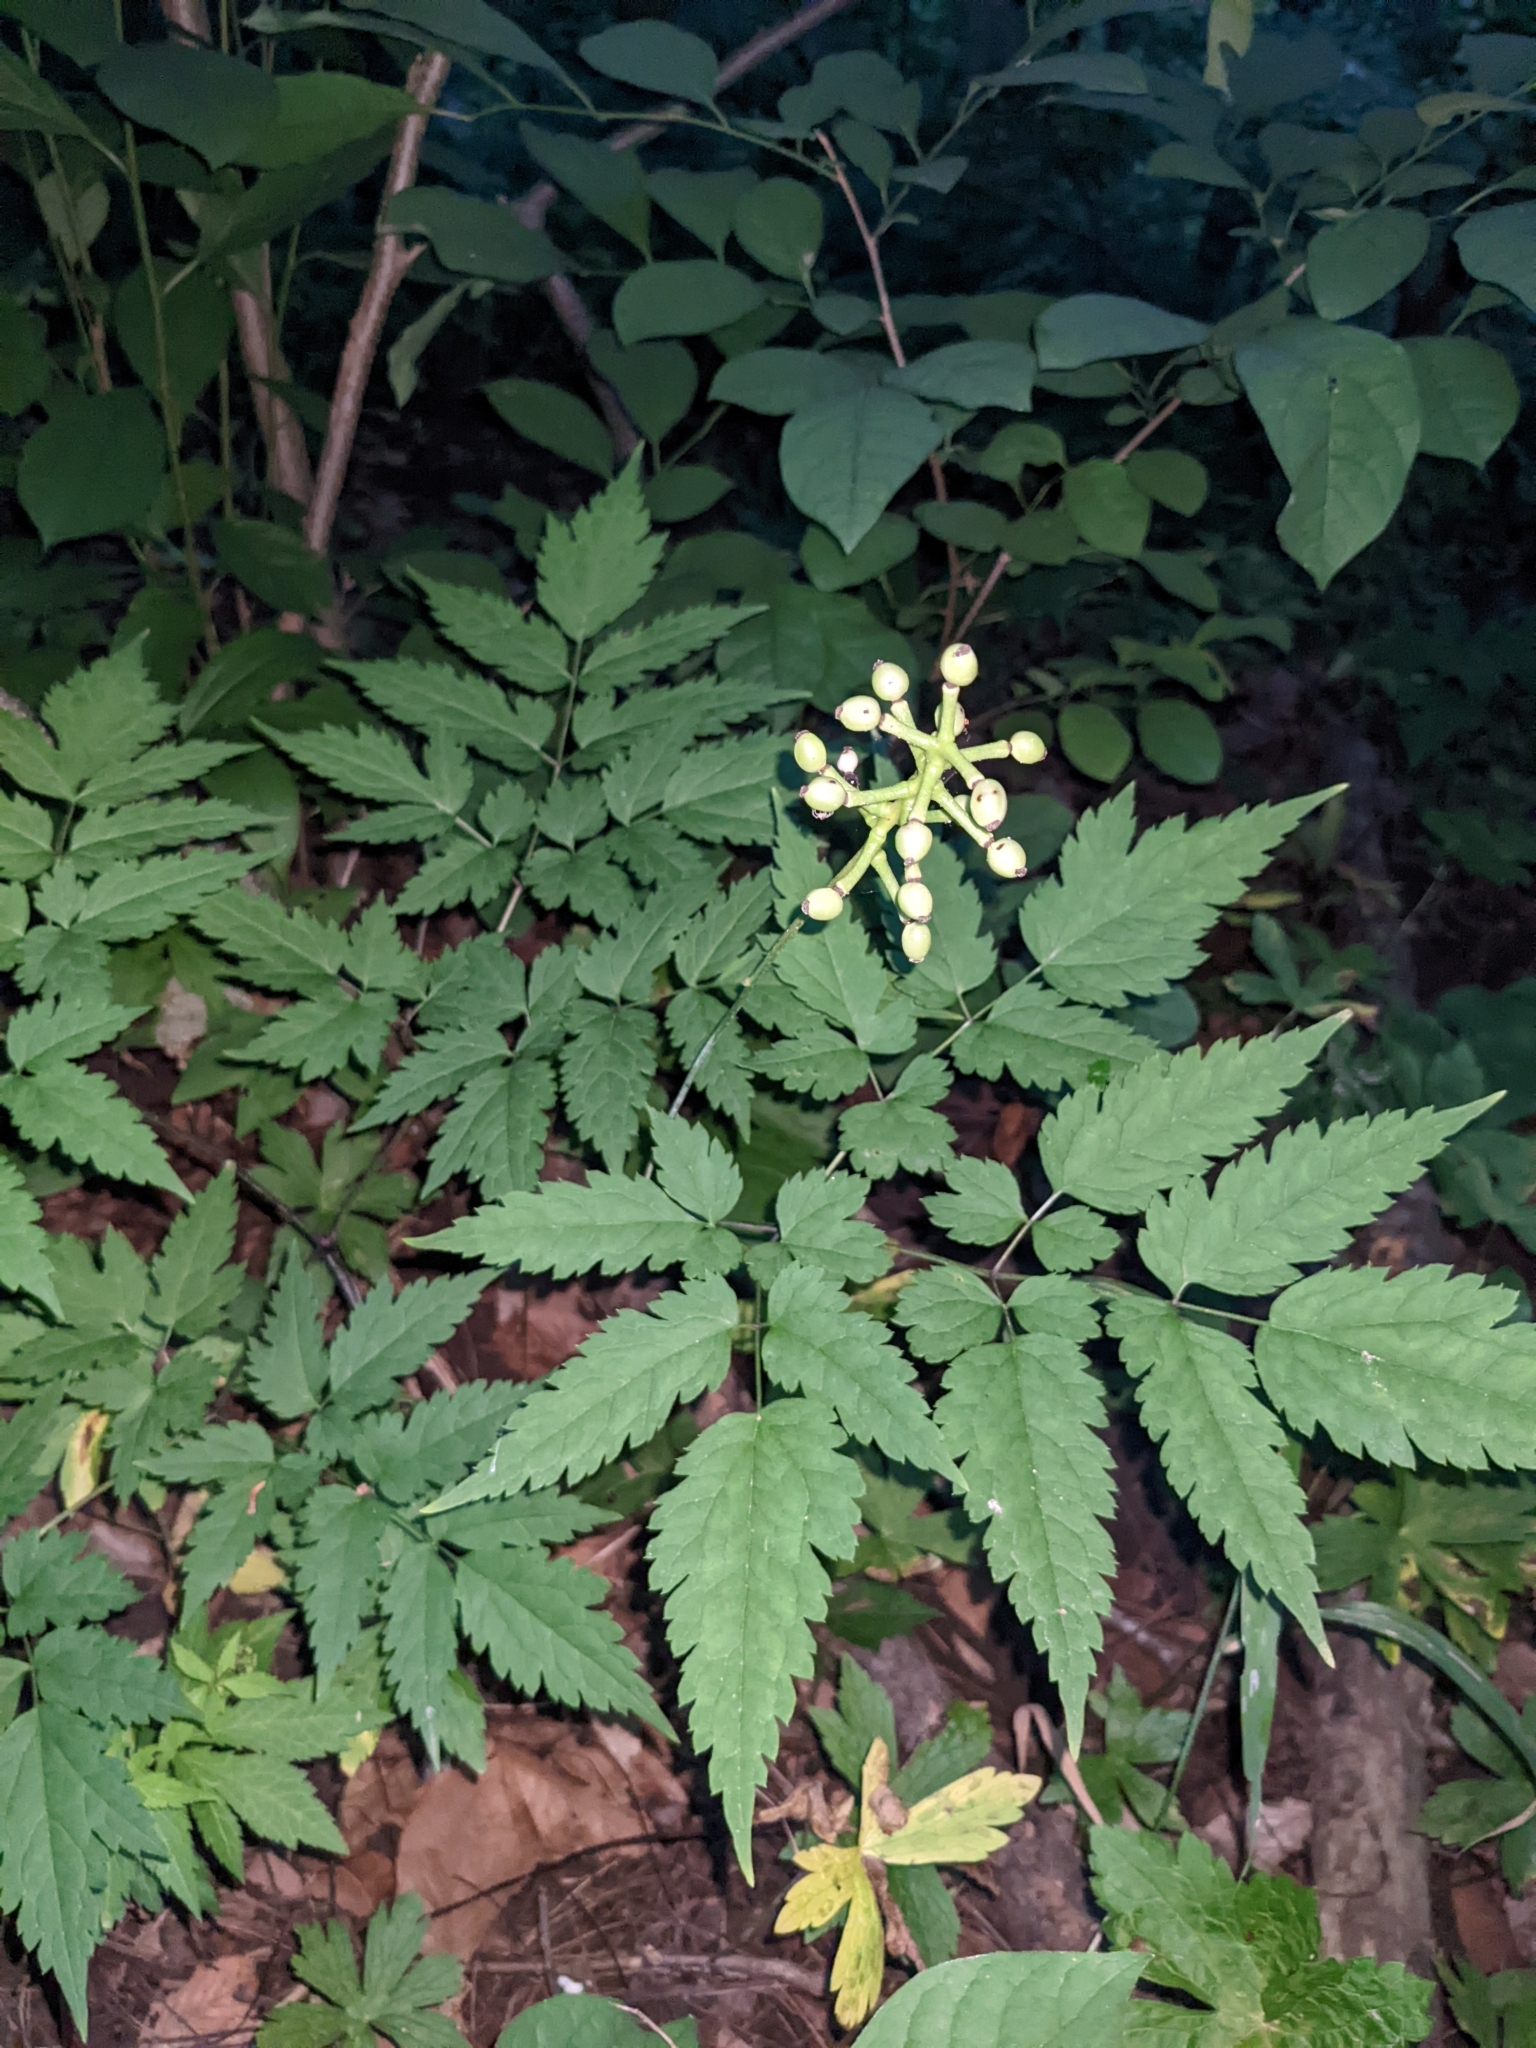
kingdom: Plantae
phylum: Tracheophyta
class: Magnoliopsida
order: Ranunculales
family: Ranunculaceae
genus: Actaea
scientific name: Actaea pachypoda
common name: Doll's-eyes
